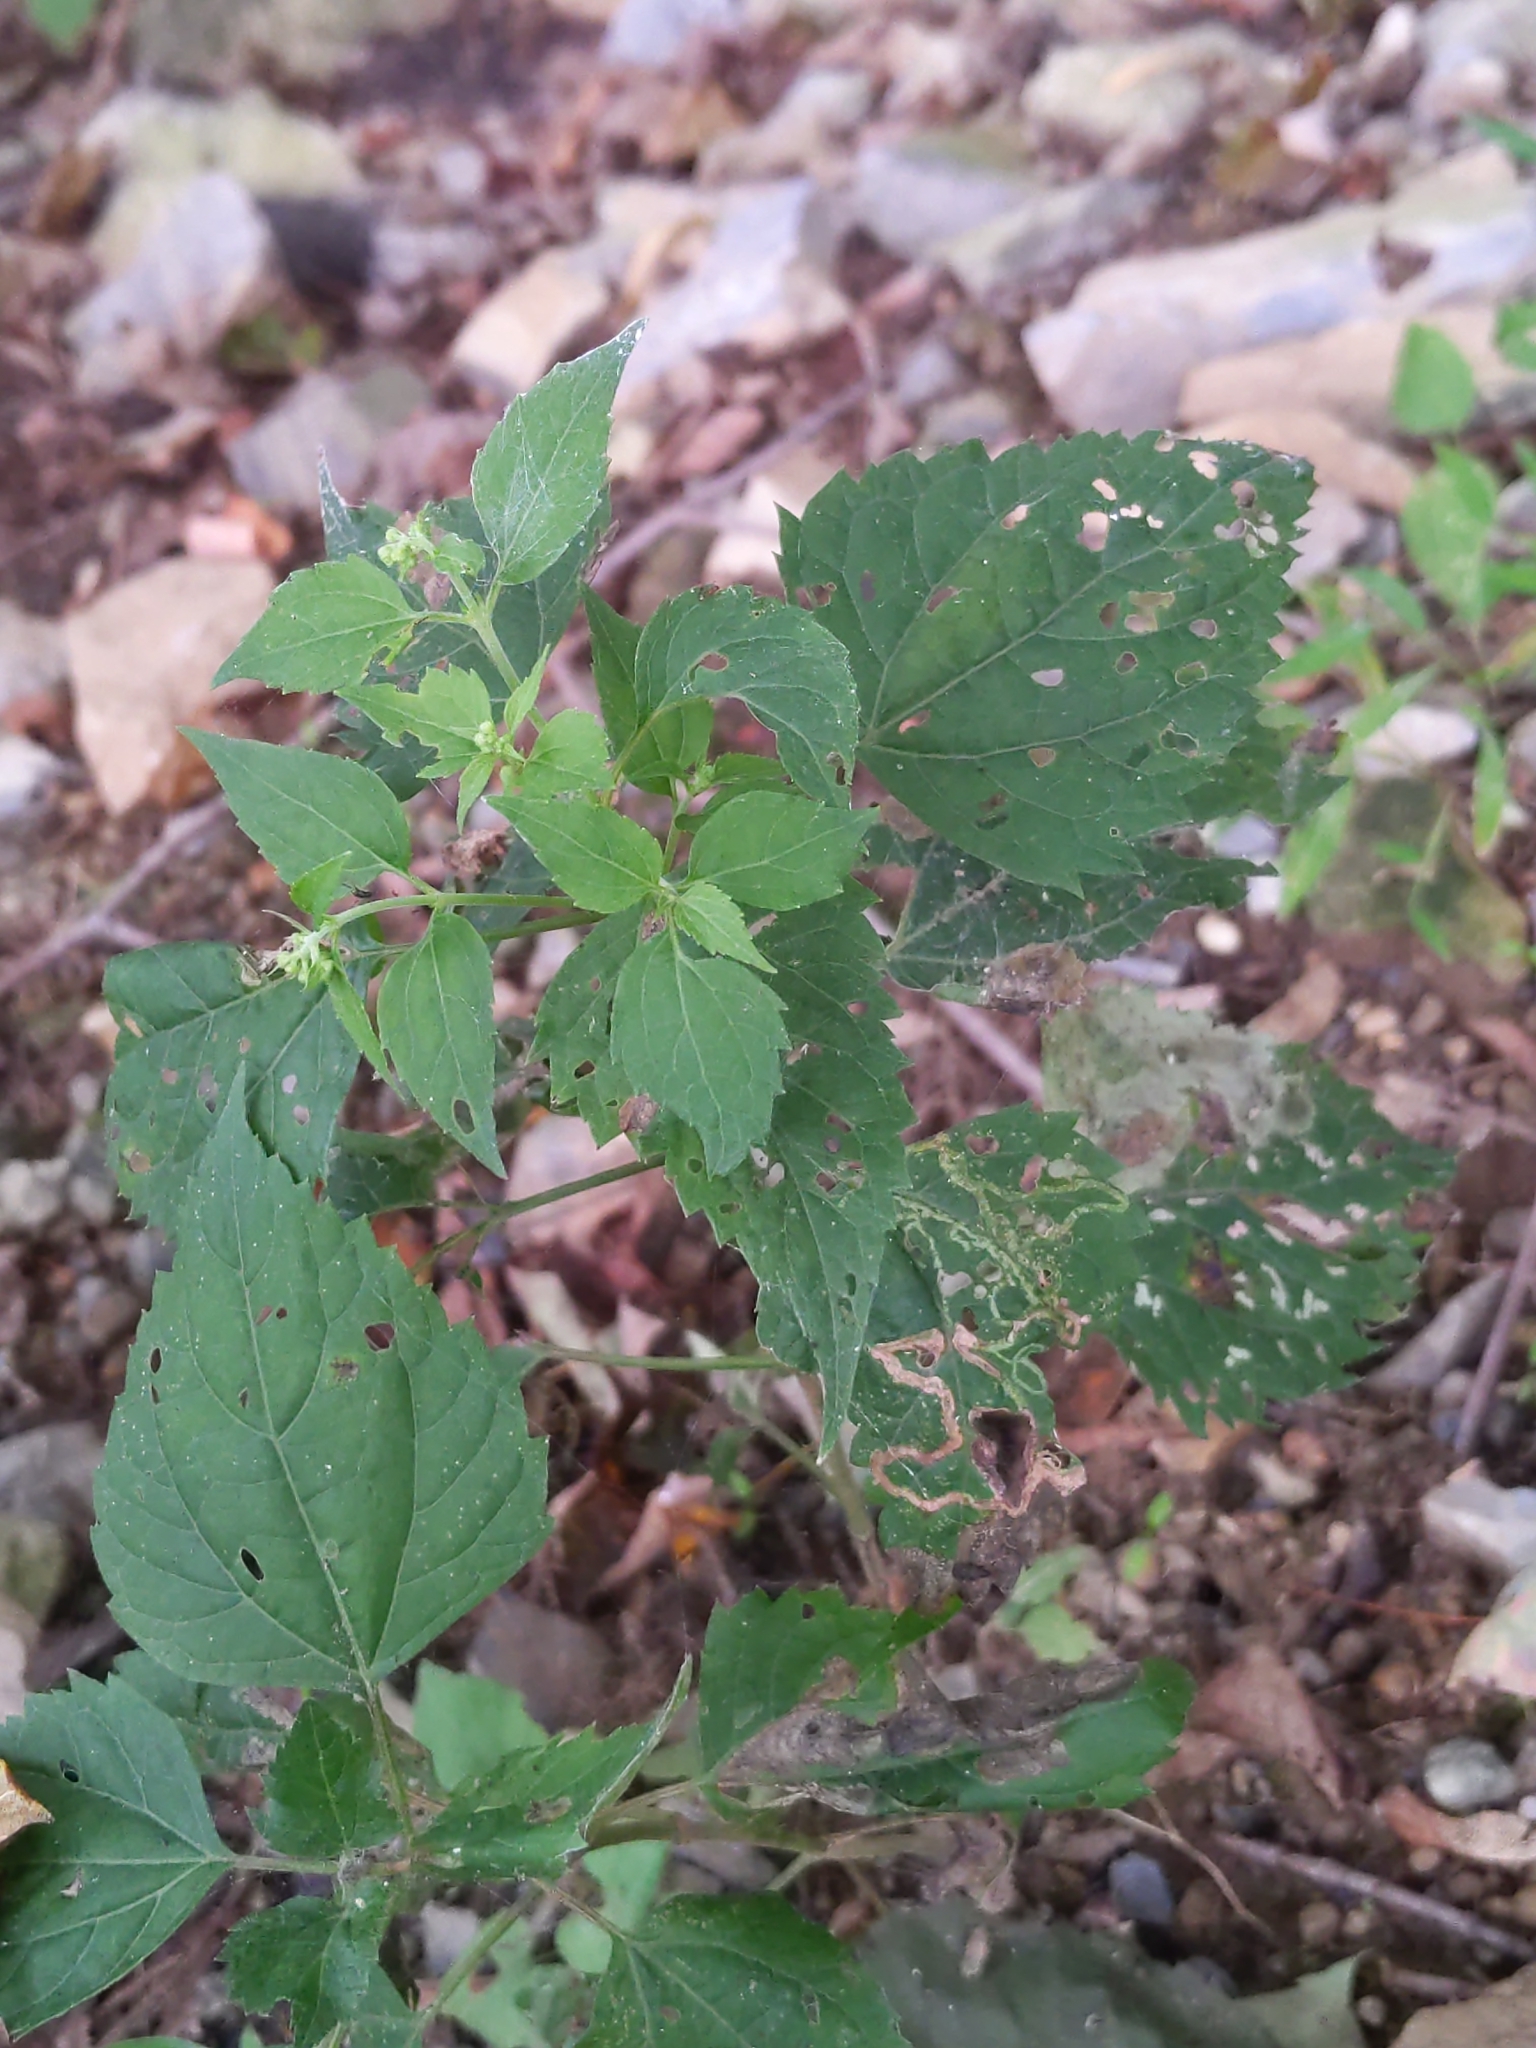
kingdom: Plantae
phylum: Tracheophyta
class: Magnoliopsida
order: Asterales
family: Asteraceae
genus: Ageratina
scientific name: Ageratina altissima
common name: White snakeroot
